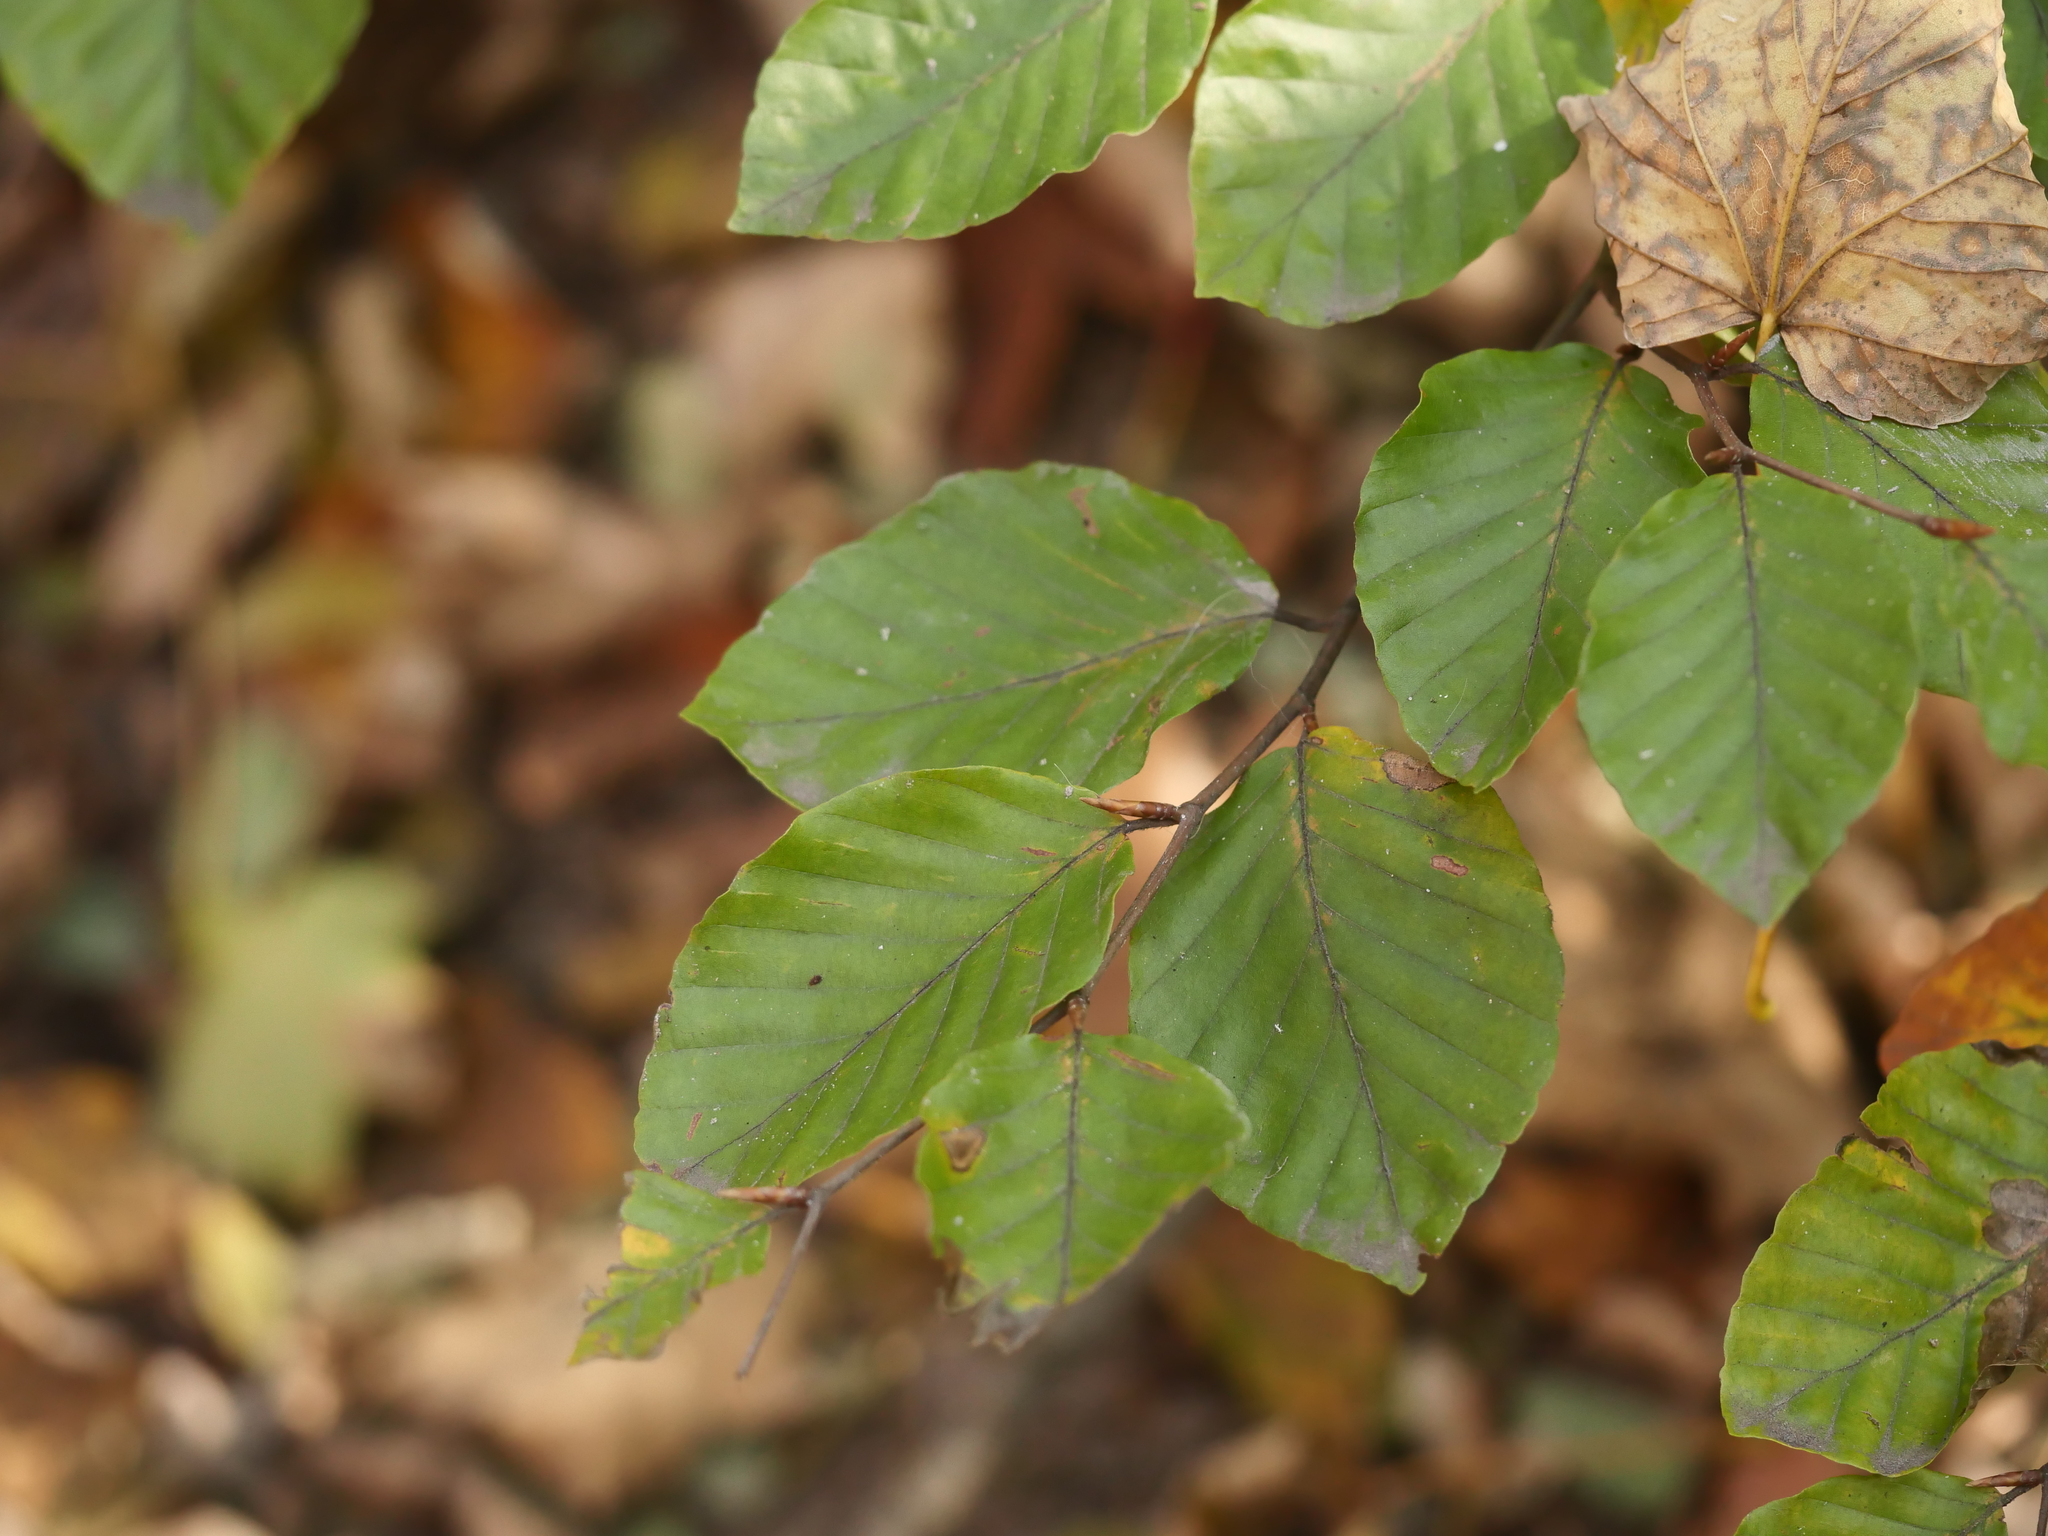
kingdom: Plantae
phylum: Tracheophyta
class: Magnoliopsida
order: Fagales
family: Fagaceae
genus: Fagus
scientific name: Fagus sylvatica
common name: Beech
